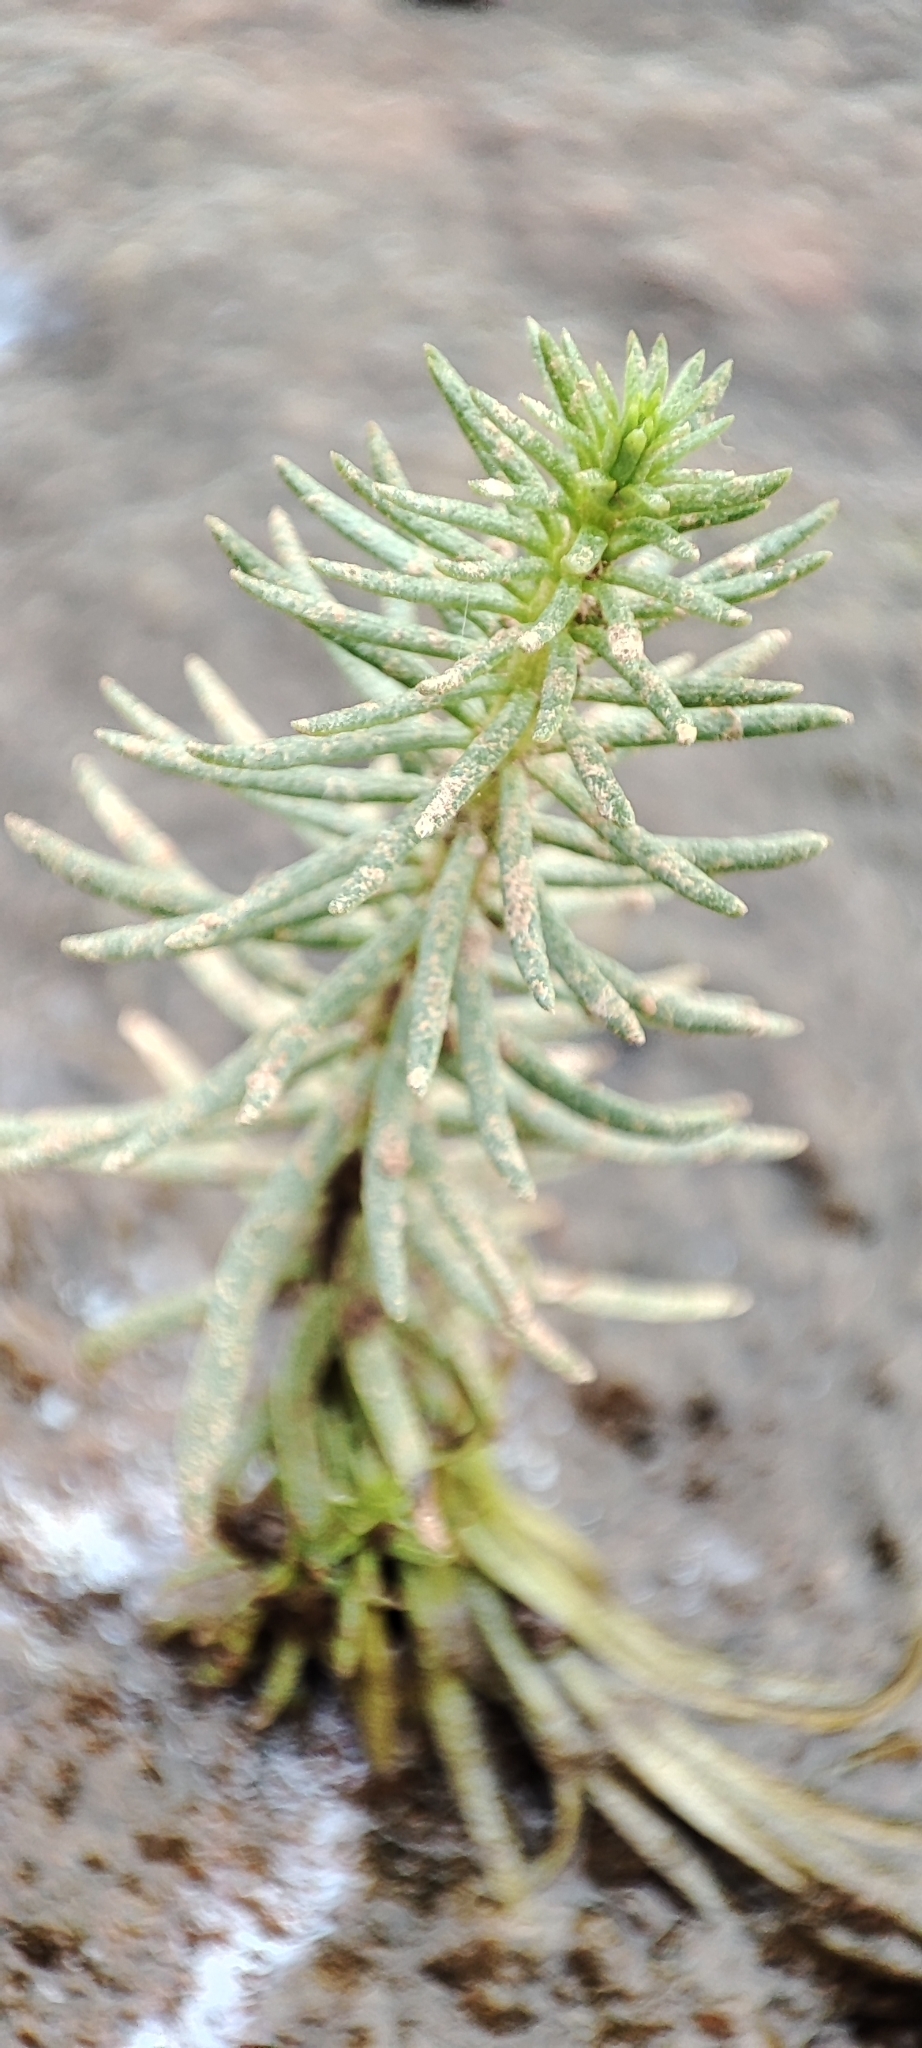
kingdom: Plantae
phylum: Tracheophyta
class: Magnoliopsida
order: Lamiales
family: Plantaginaceae
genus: Hippuris
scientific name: Hippuris vulgaris
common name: Mare's-tail
